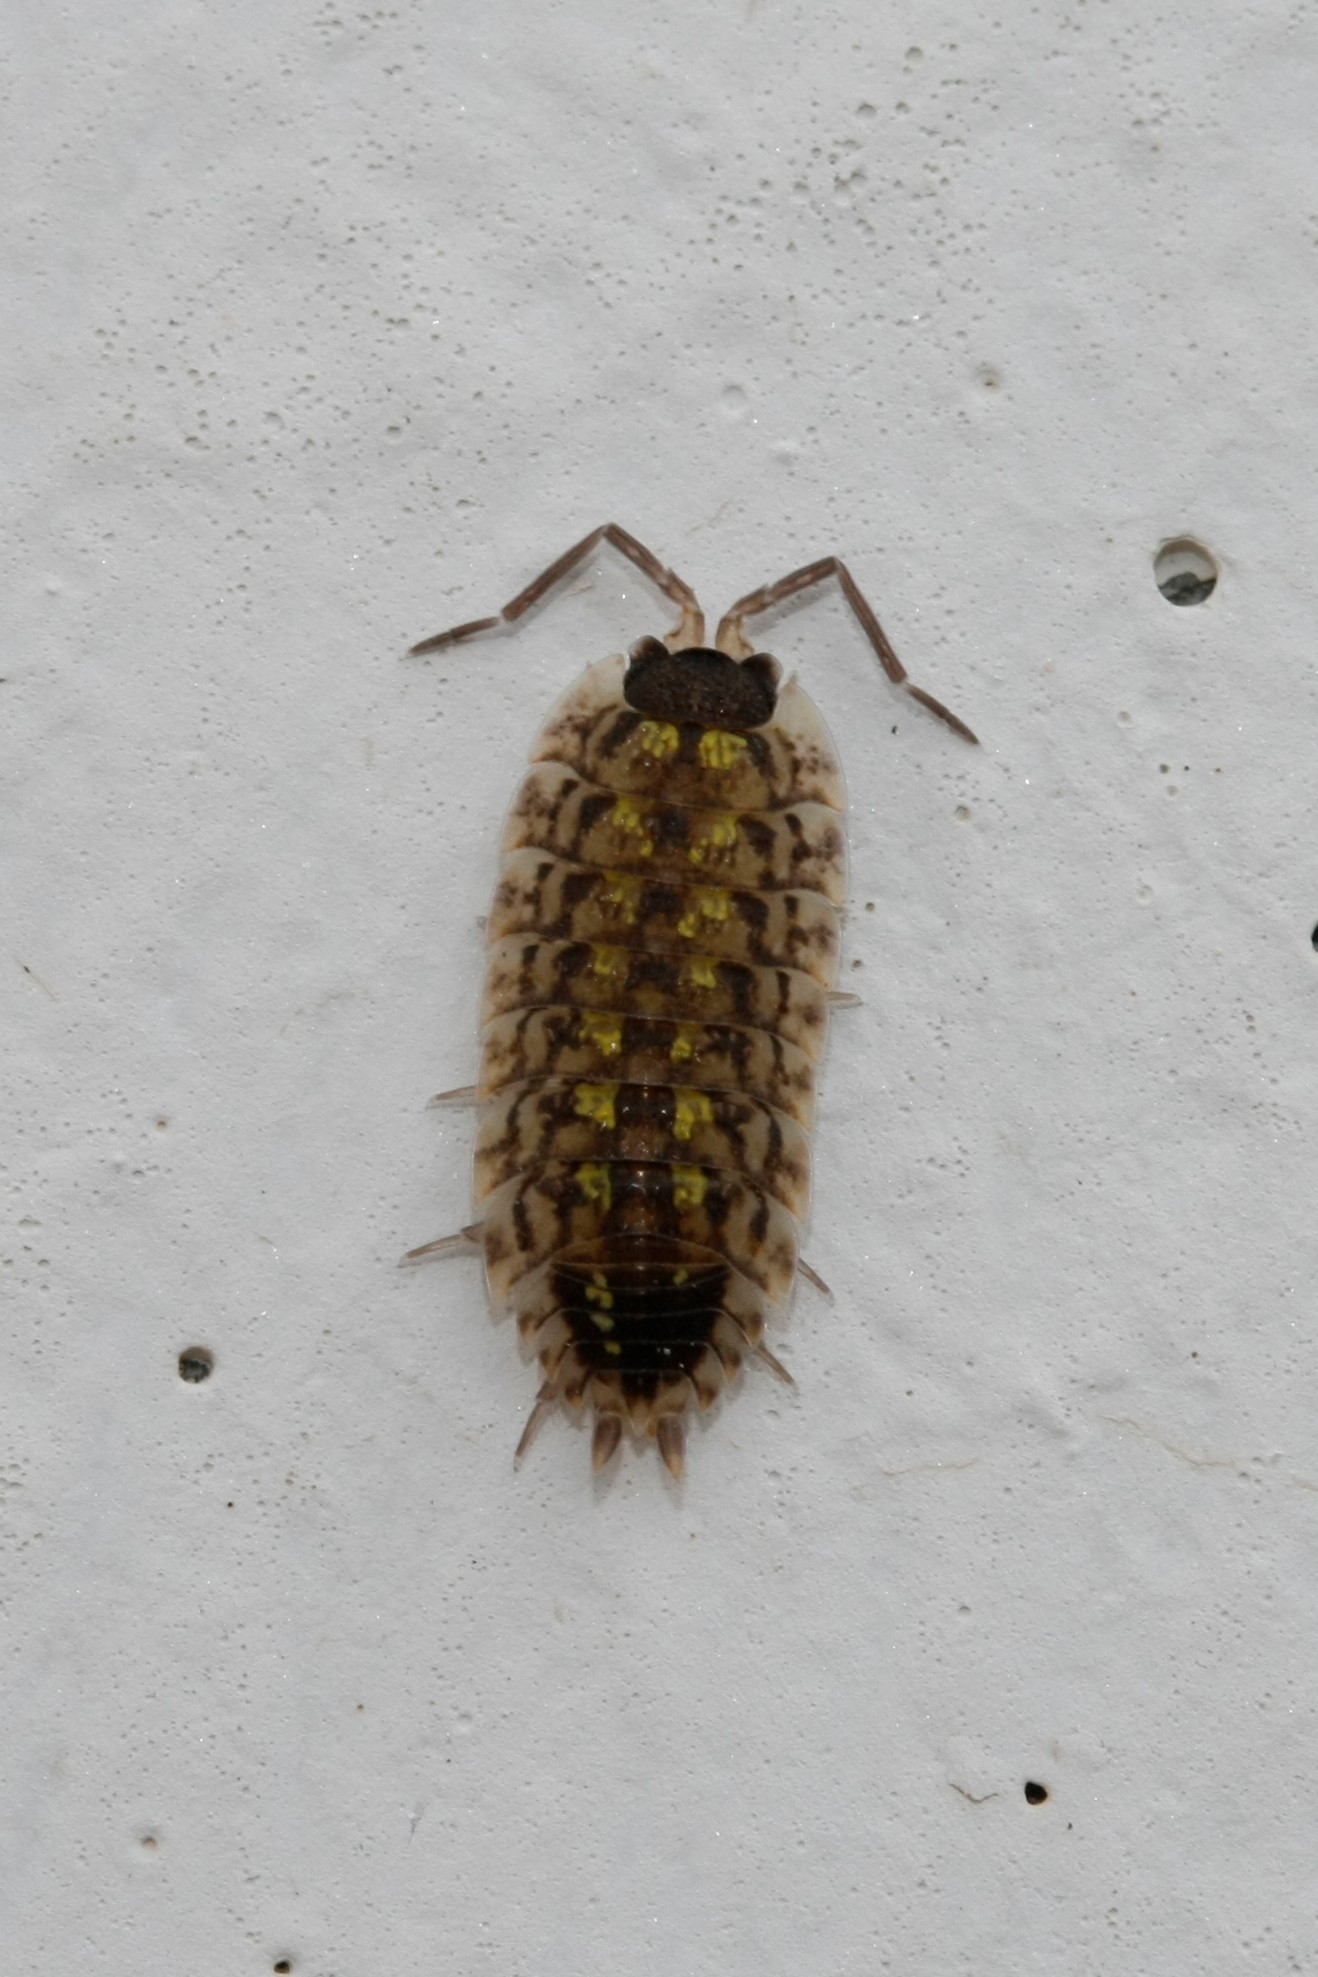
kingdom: Animalia
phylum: Arthropoda
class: Malacostraca
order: Isopoda
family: Porcellionidae
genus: Porcellio
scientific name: Porcellio spinicornis
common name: Painted woodlouse
